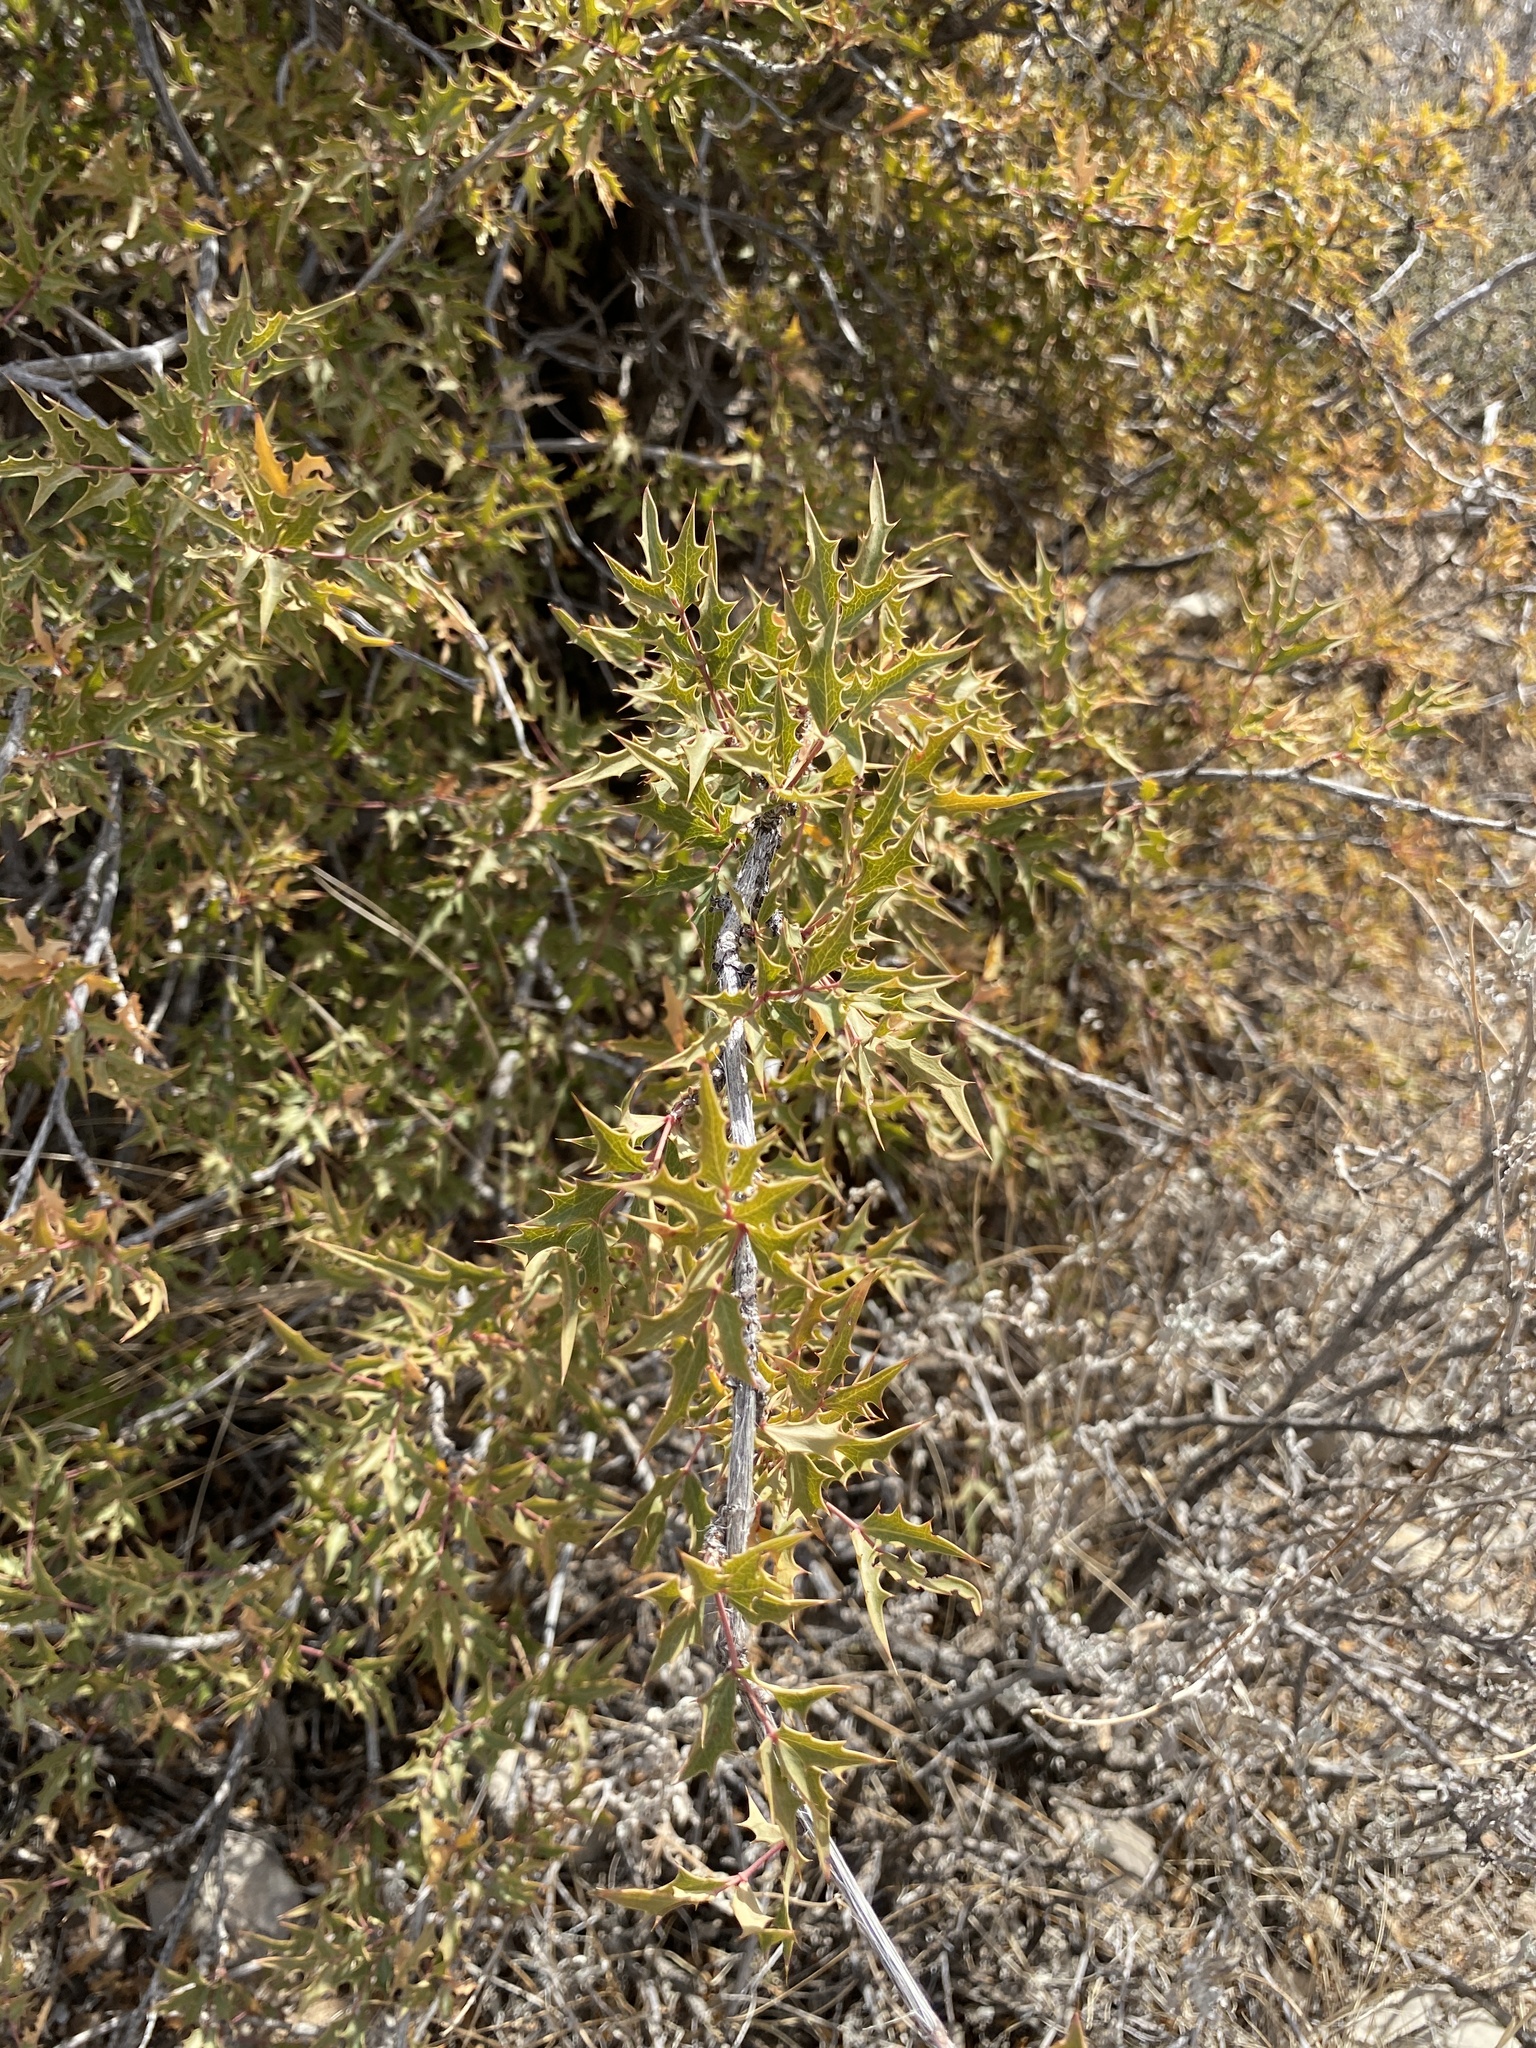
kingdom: Plantae
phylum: Tracheophyta
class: Magnoliopsida
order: Ranunculales
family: Berberidaceae
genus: Alloberberis
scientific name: Alloberberis haematocarpa
